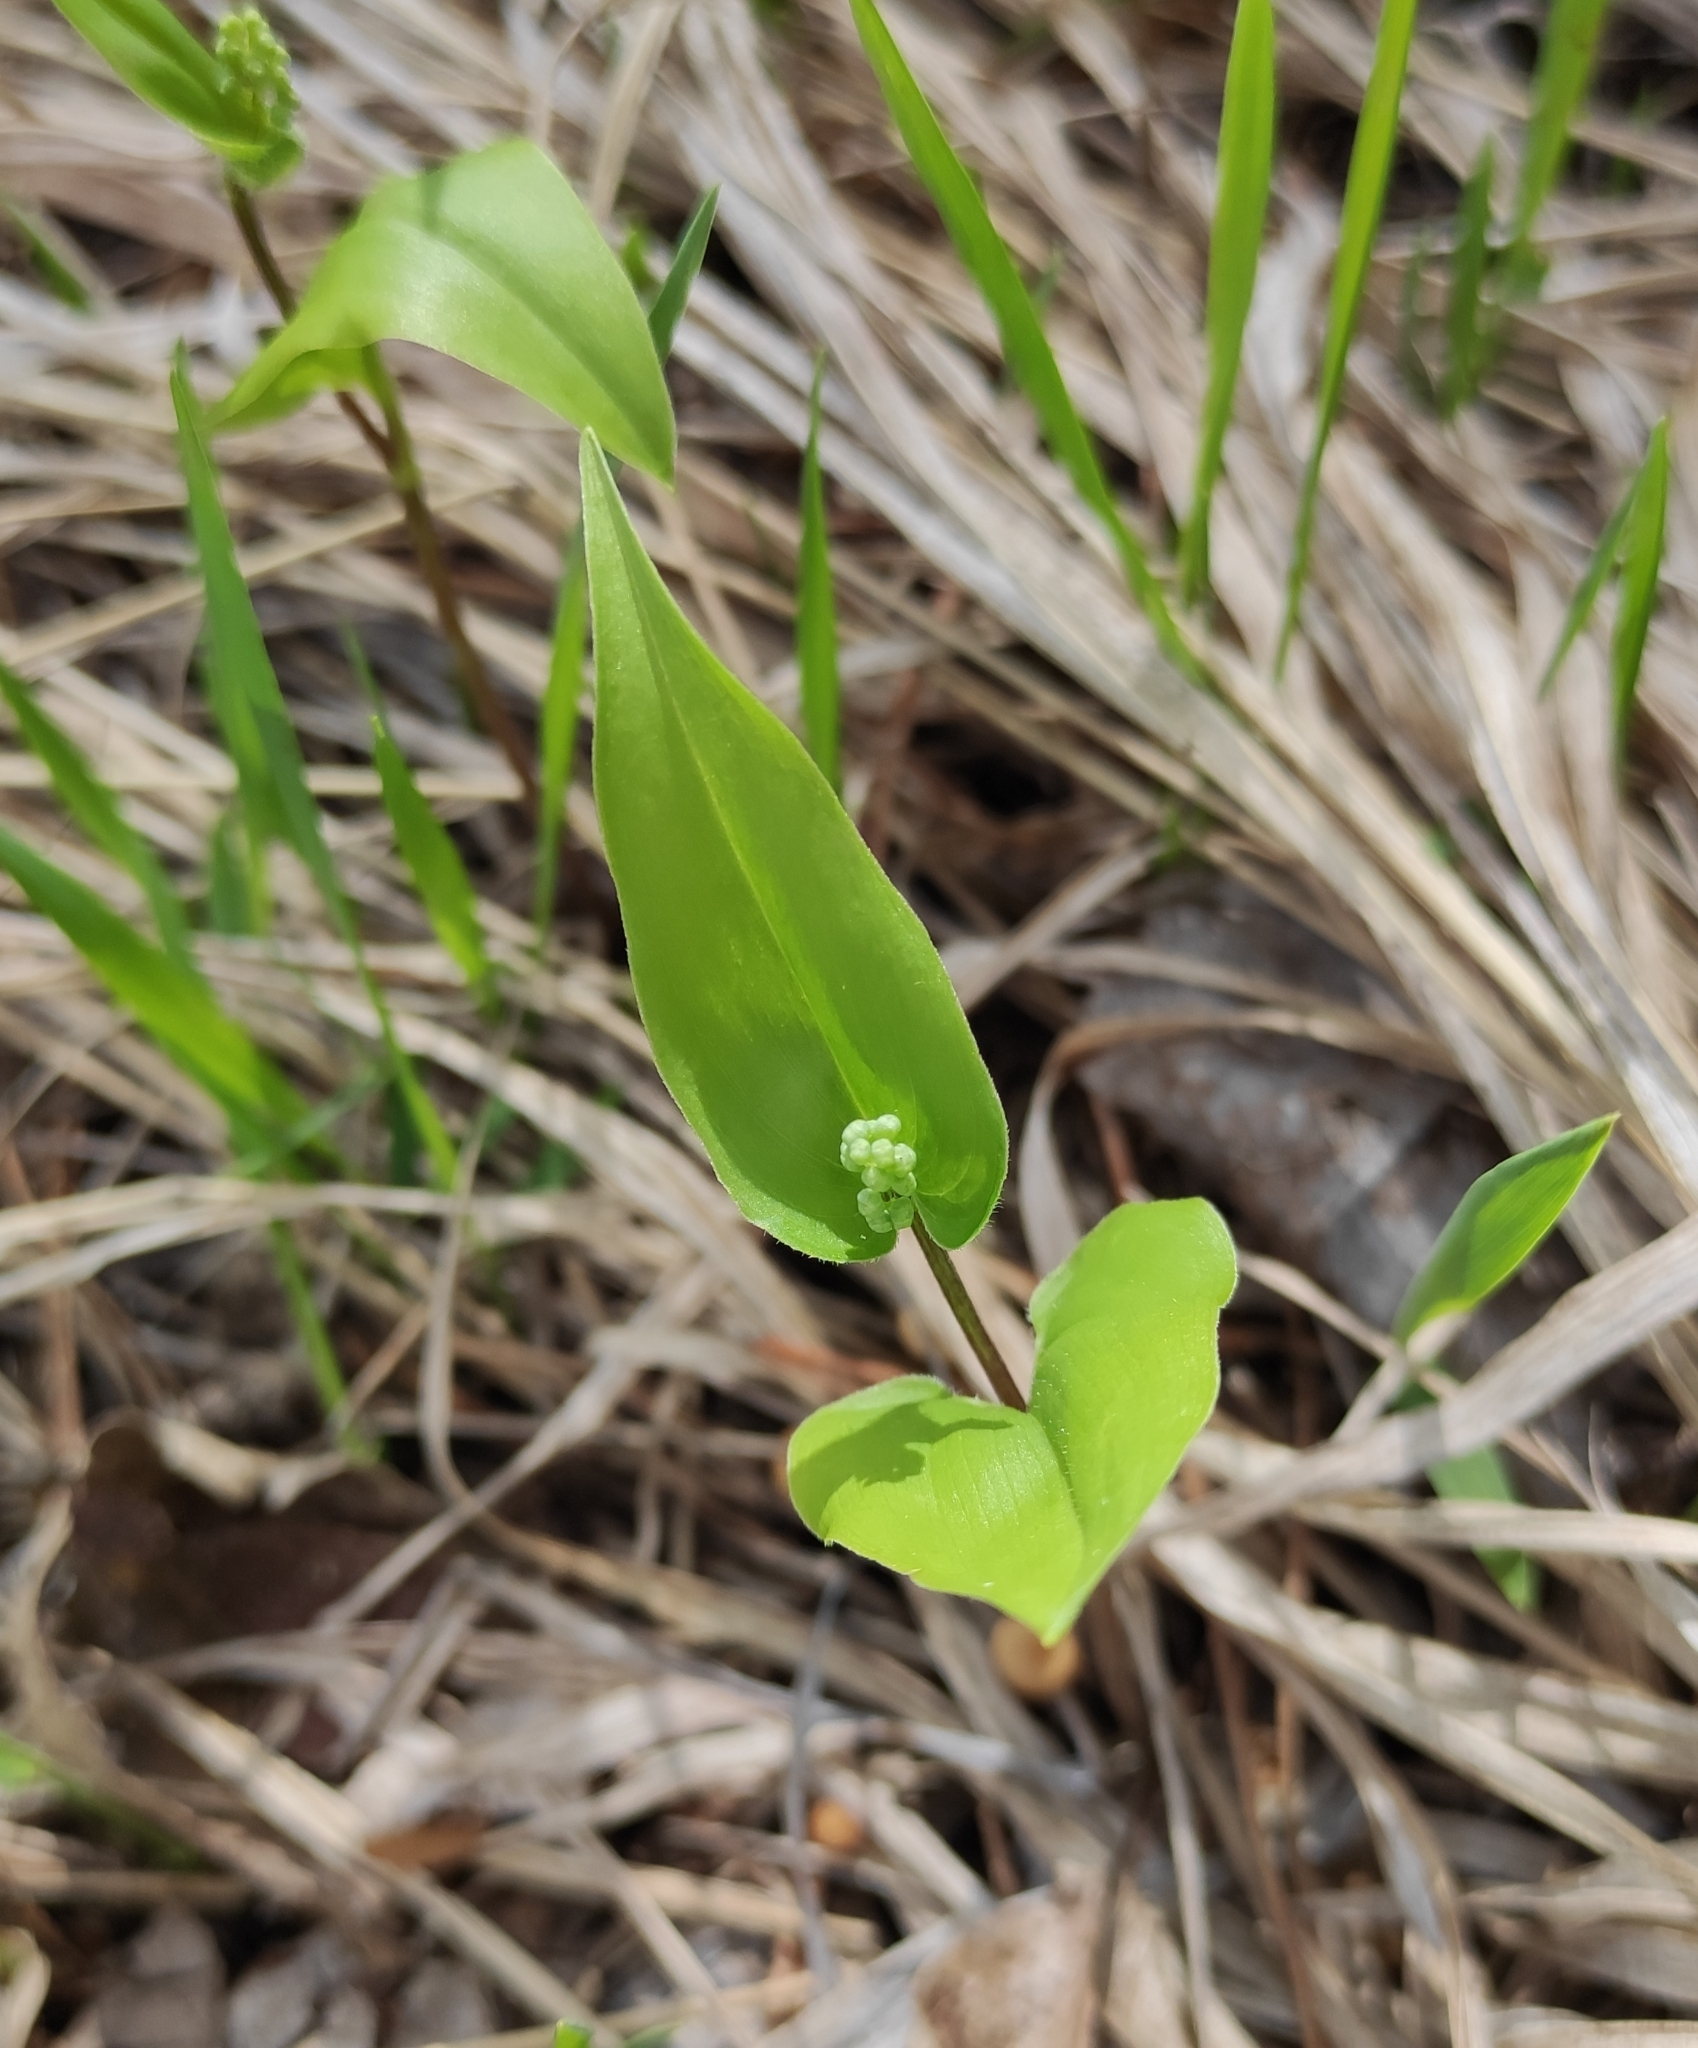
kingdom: Plantae
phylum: Tracheophyta
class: Liliopsida
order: Asparagales
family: Asparagaceae
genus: Maianthemum
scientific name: Maianthemum bifolium
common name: May lily
